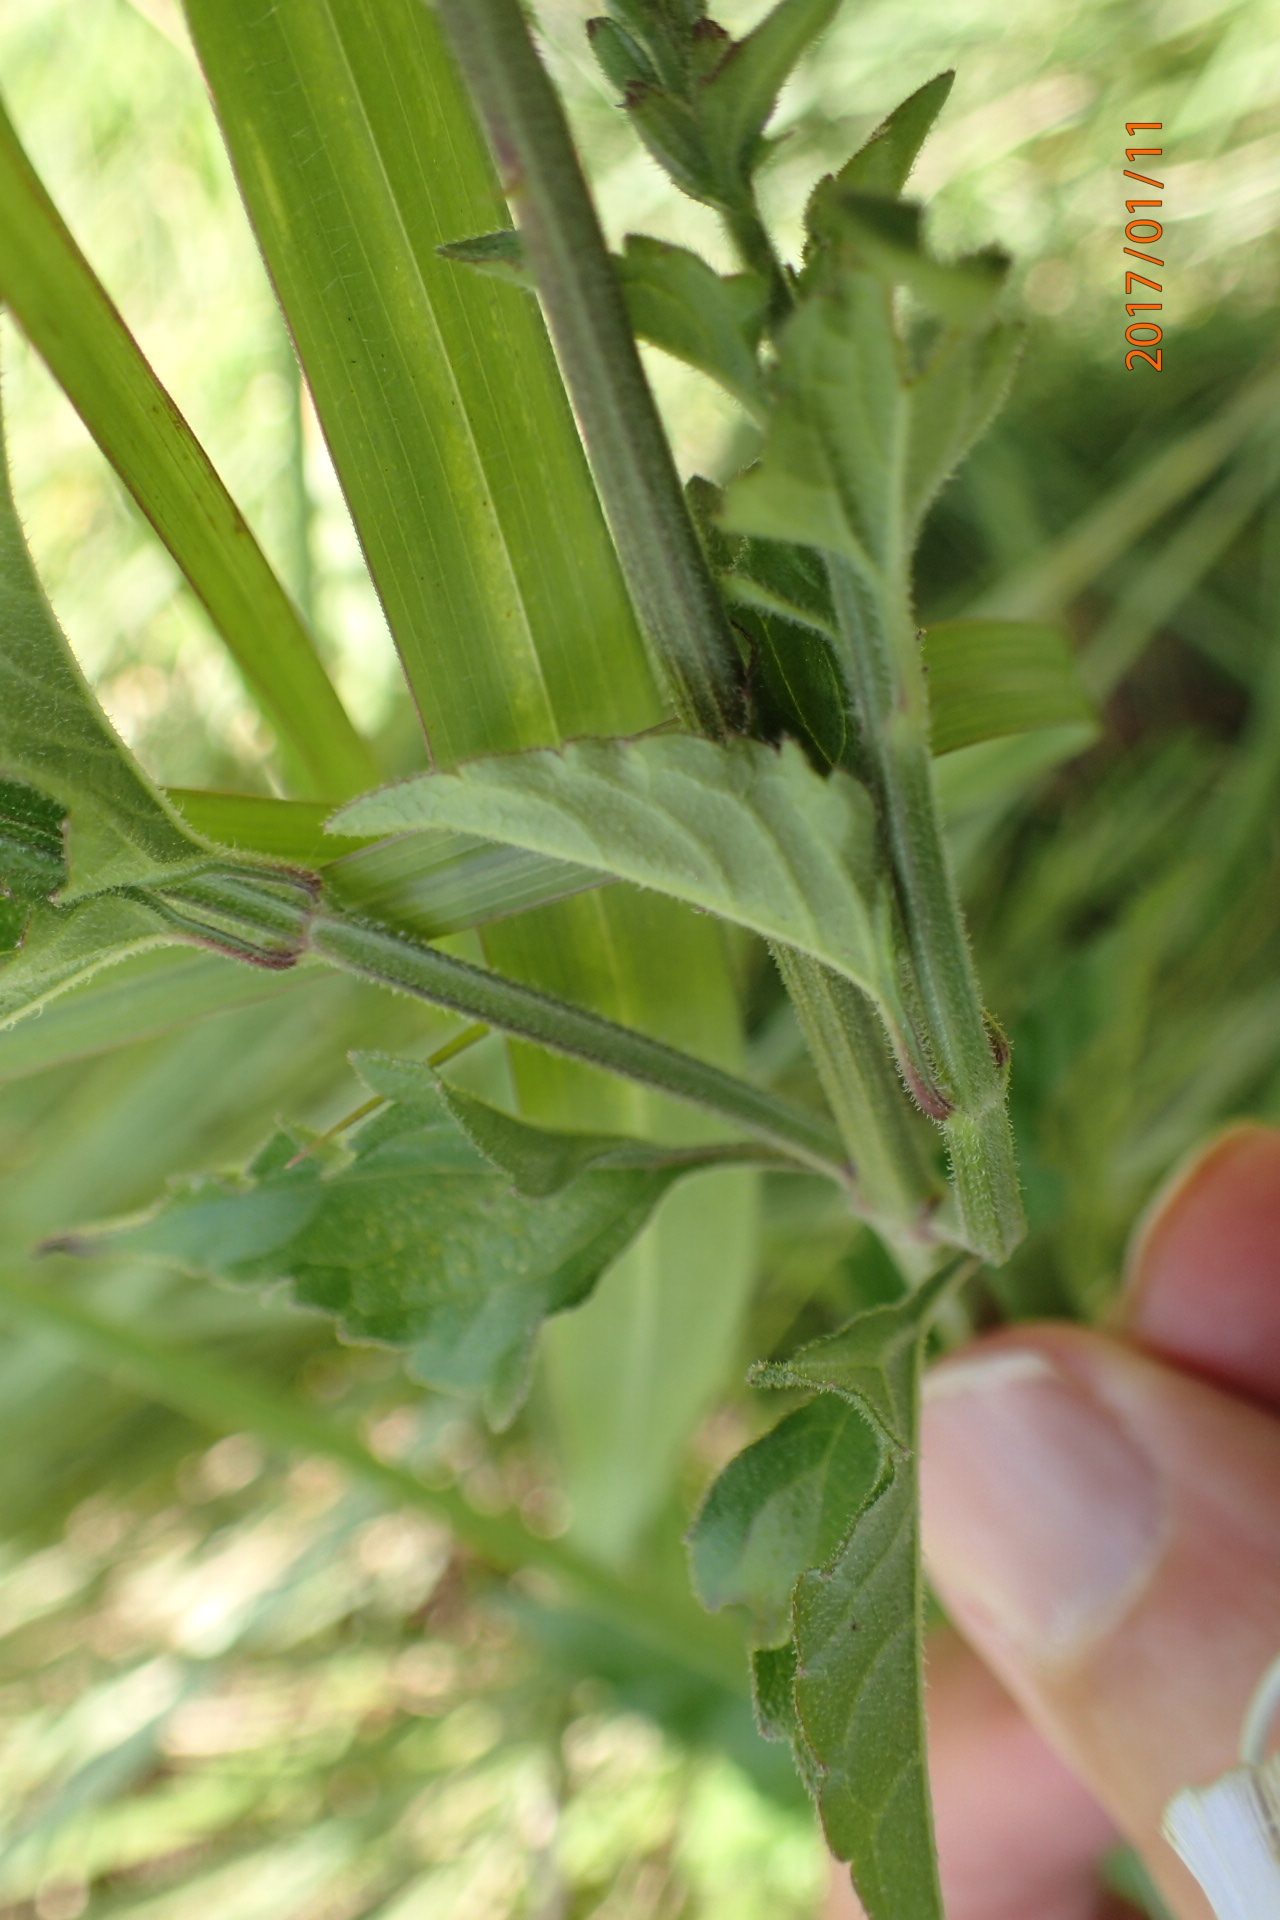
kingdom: Plantae
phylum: Tracheophyta
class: Magnoliopsida
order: Lamiales
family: Verbenaceae
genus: Chascanum
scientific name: Chascanum hederaceum
